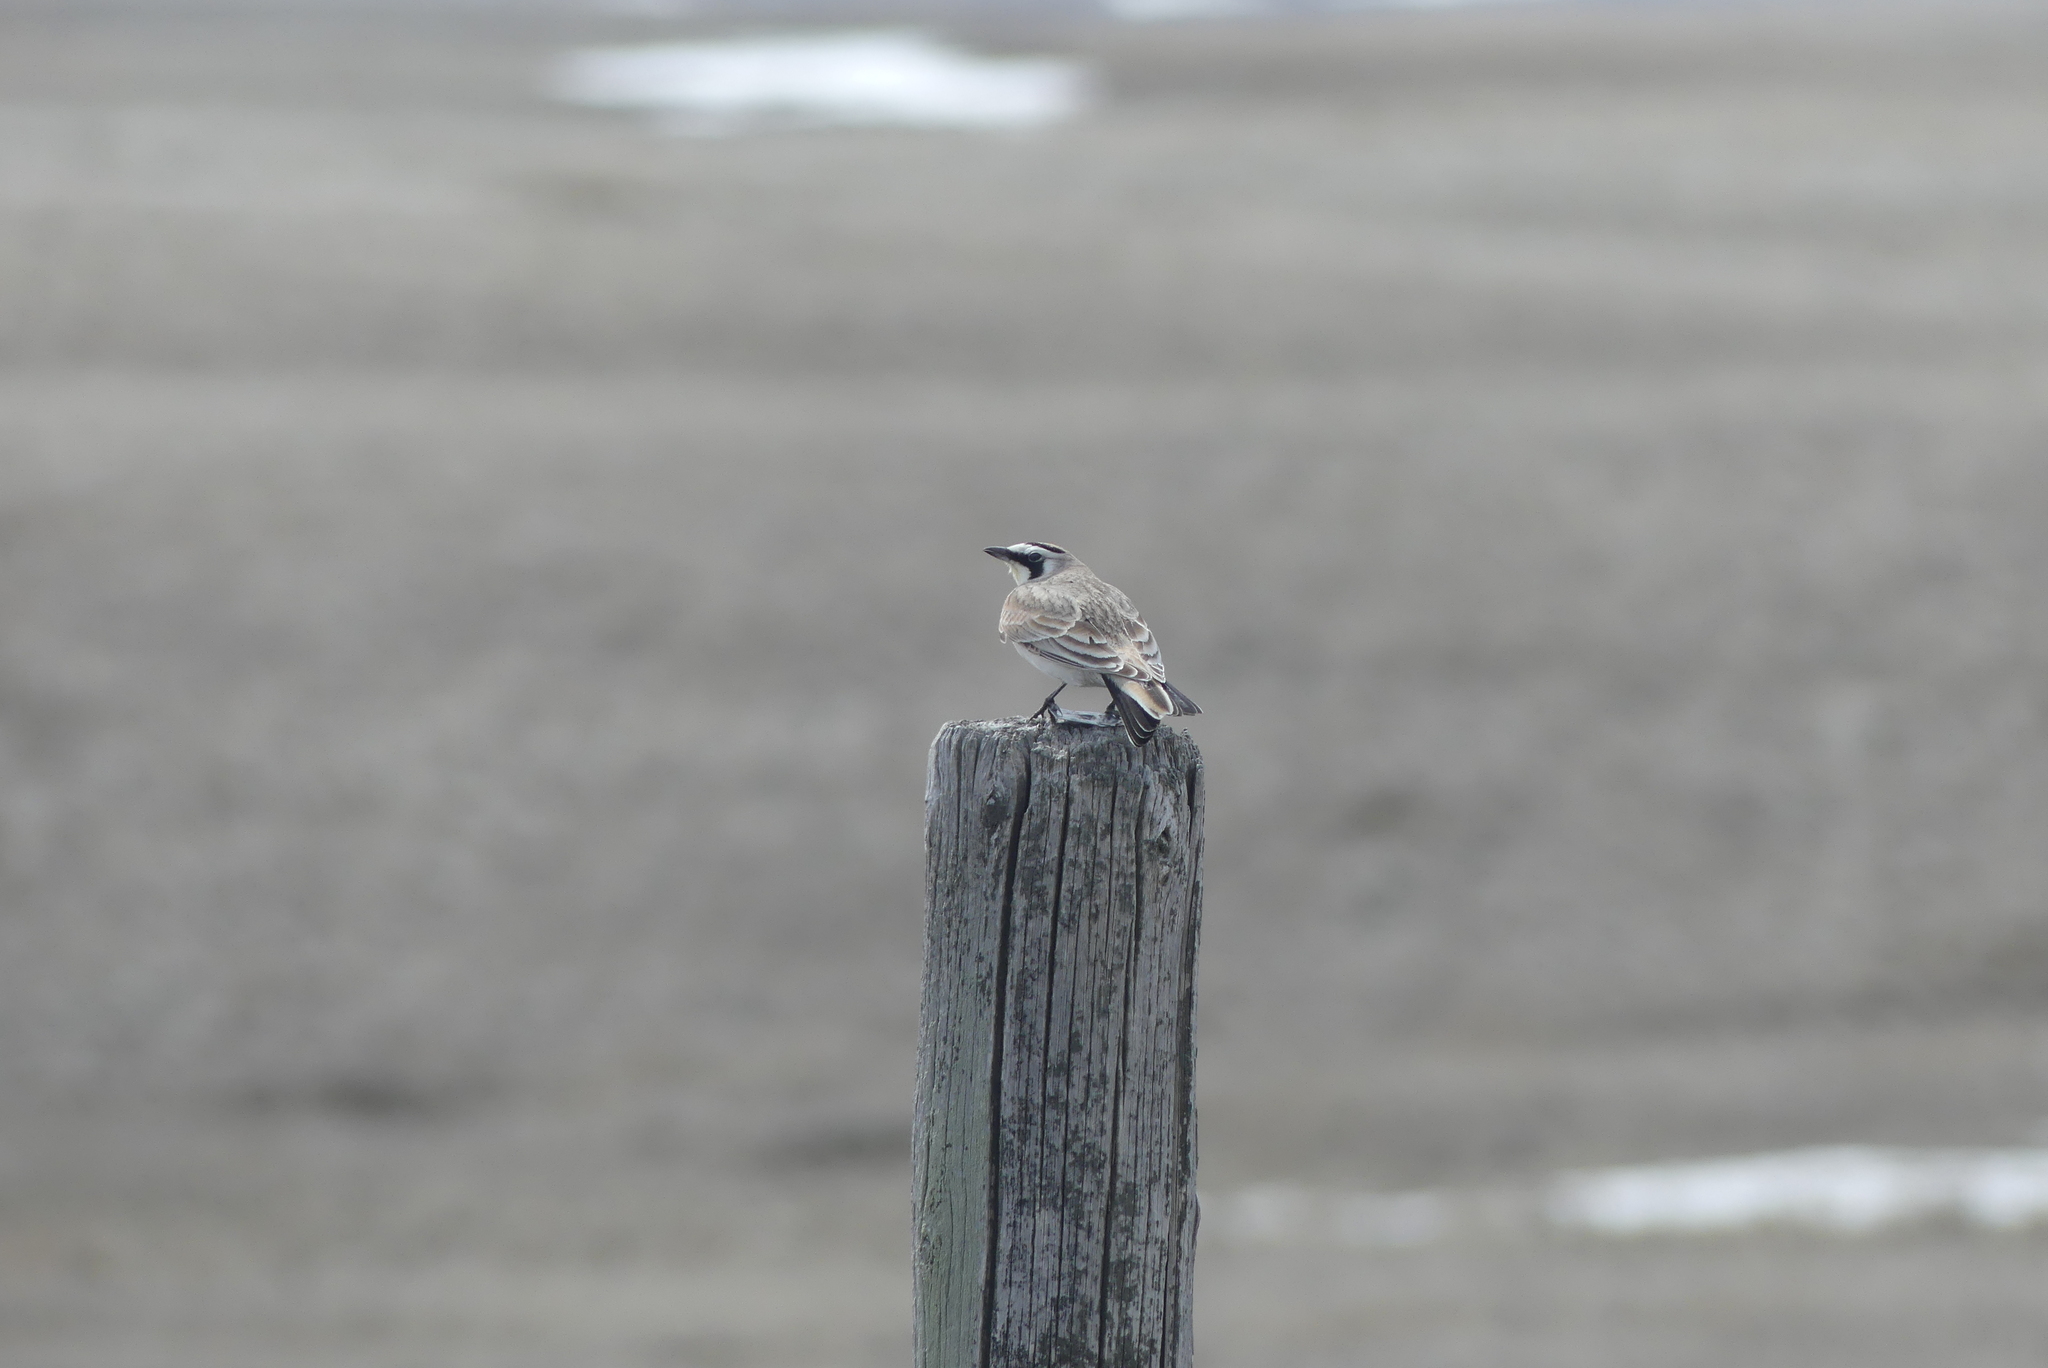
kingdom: Animalia
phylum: Chordata
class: Aves
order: Passeriformes
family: Alaudidae
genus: Eremophila
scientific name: Eremophila alpestris
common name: Horned lark
